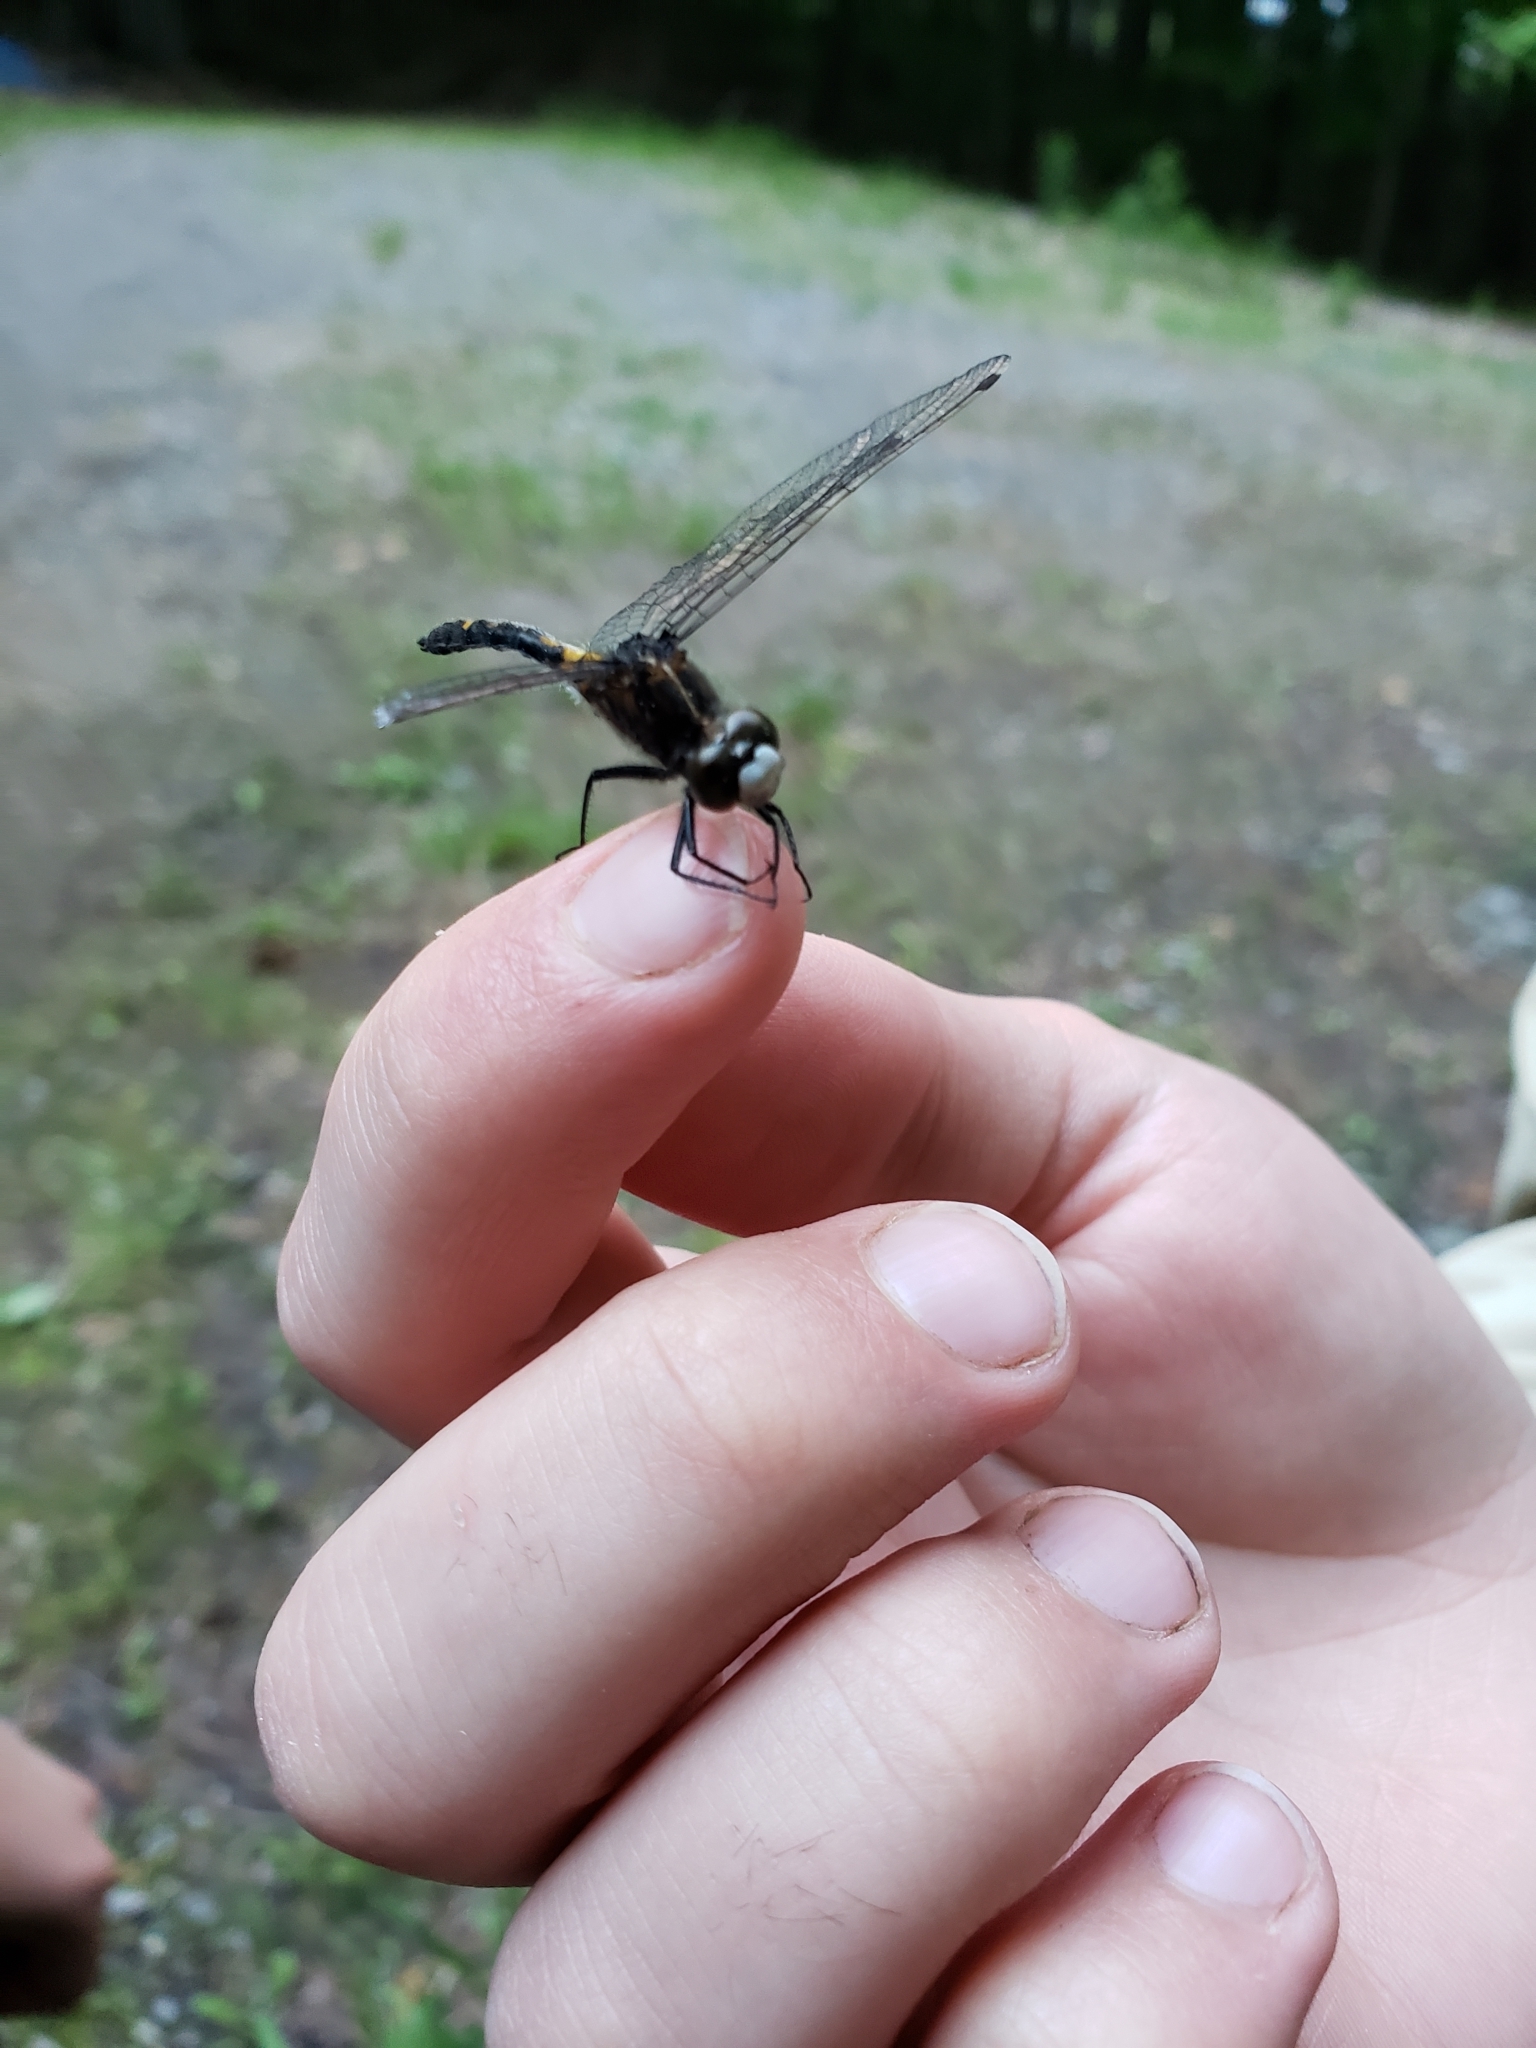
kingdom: Animalia
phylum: Arthropoda
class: Insecta
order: Odonata
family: Libellulidae
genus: Leucorrhinia
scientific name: Leucorrhinia intacta
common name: Dot-tailed whiteface
